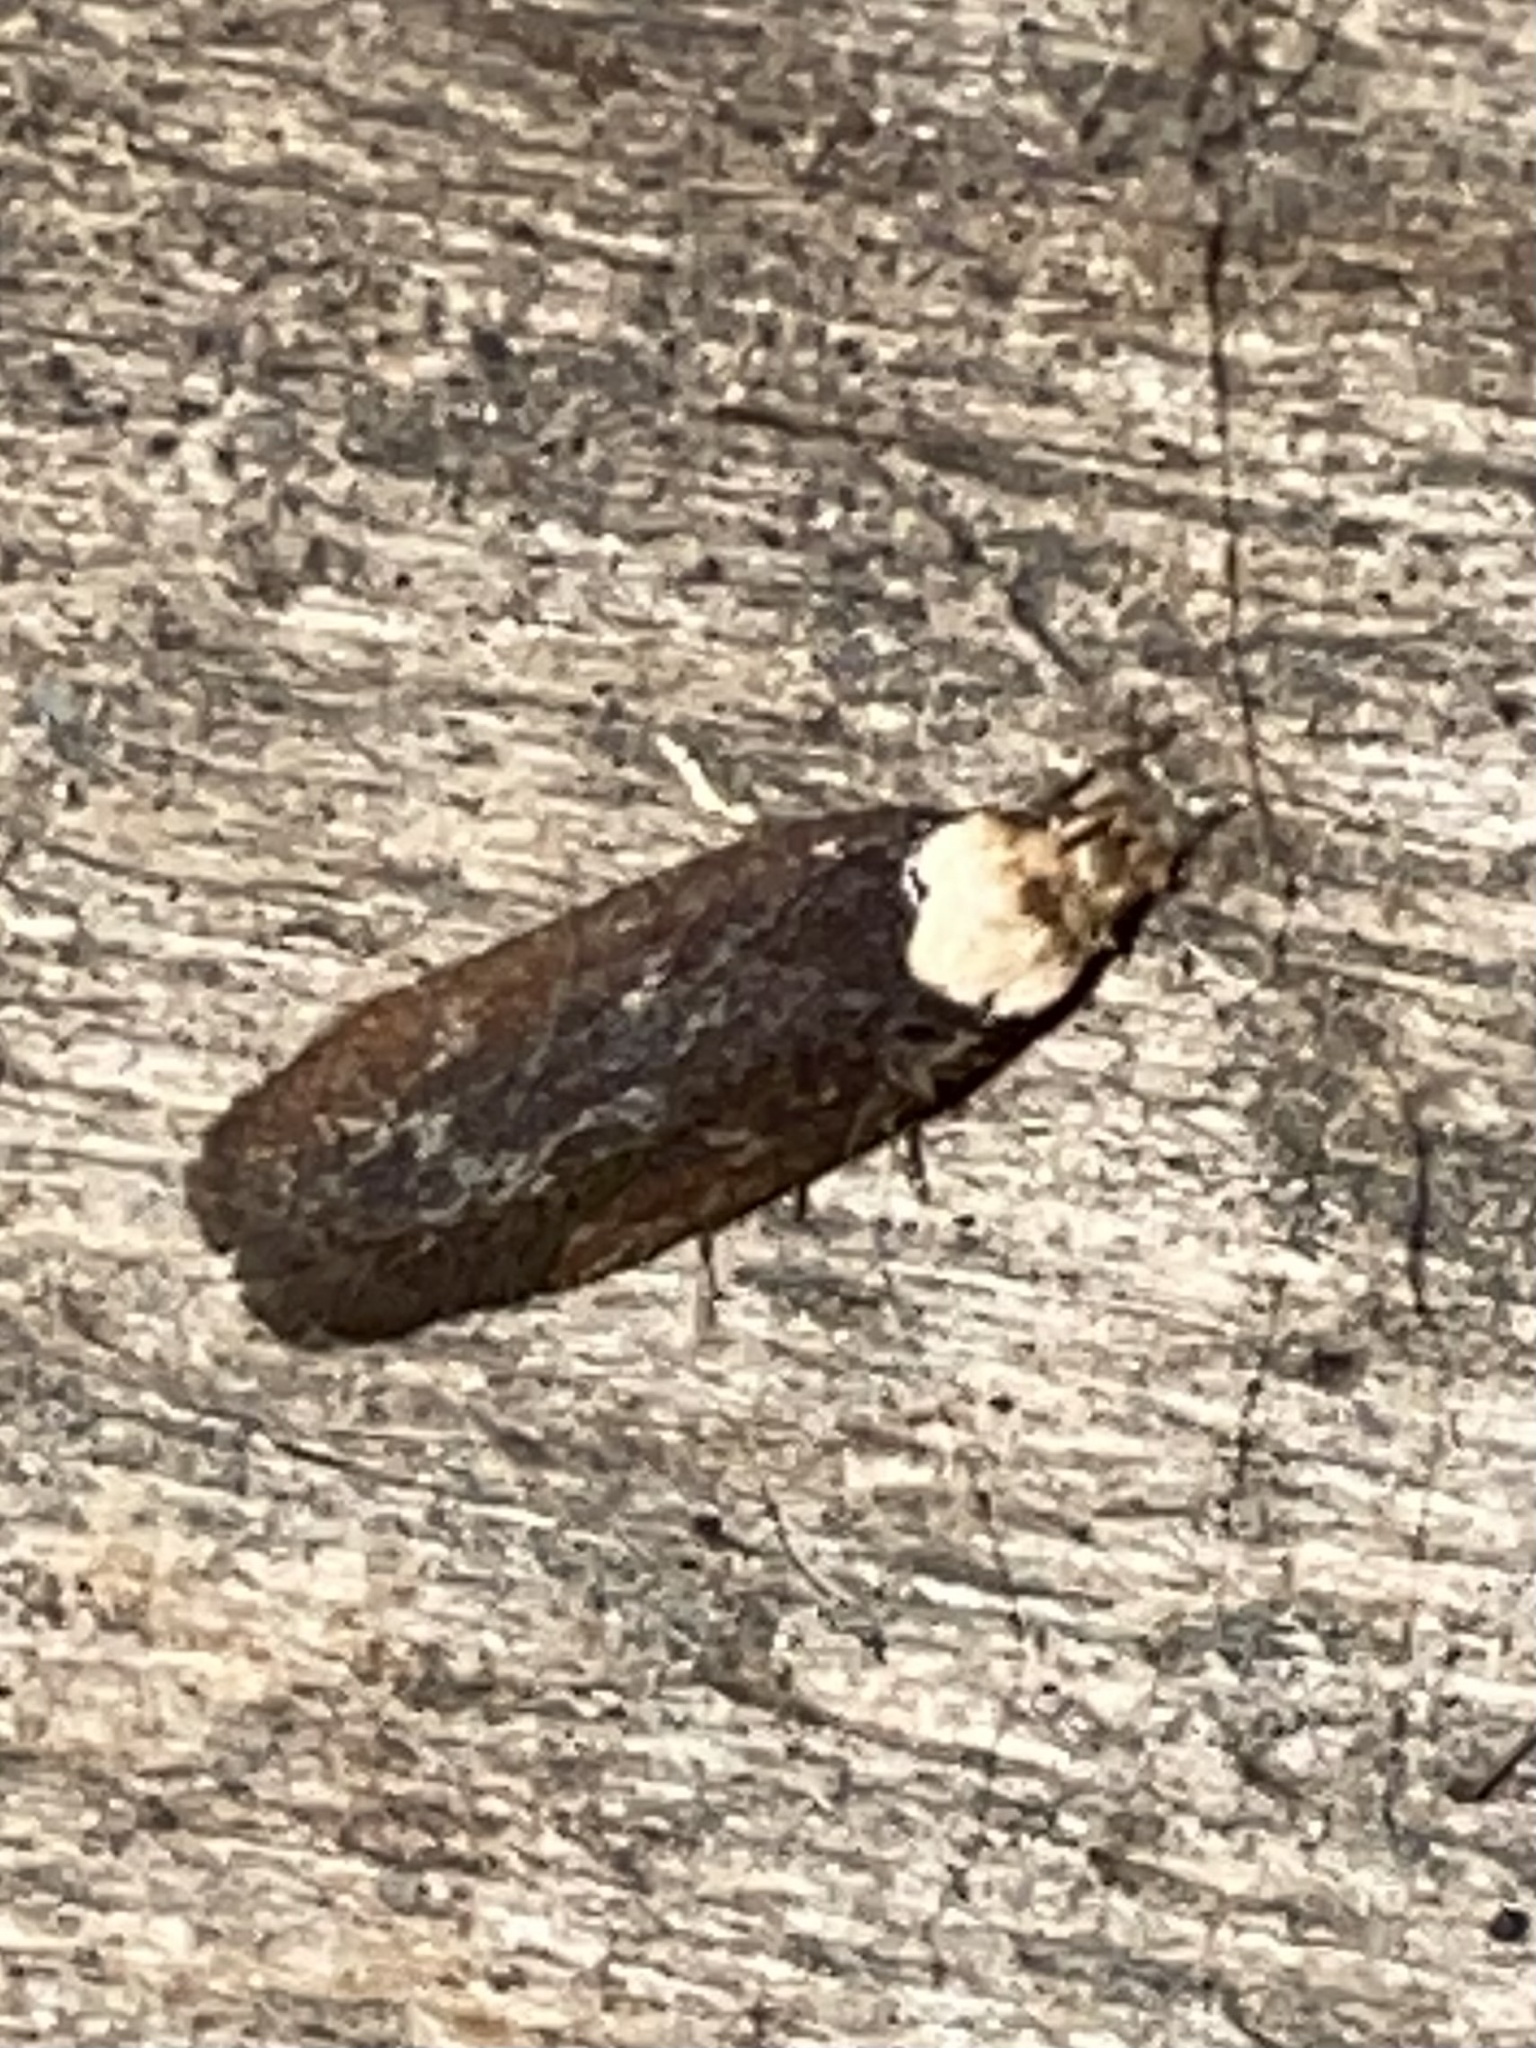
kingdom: Animalia
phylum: Arthropoda
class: Insecta
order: Lepidoptera
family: Depressariidae
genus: Depressaria
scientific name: Depressaria depressana
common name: Lost flat-body
